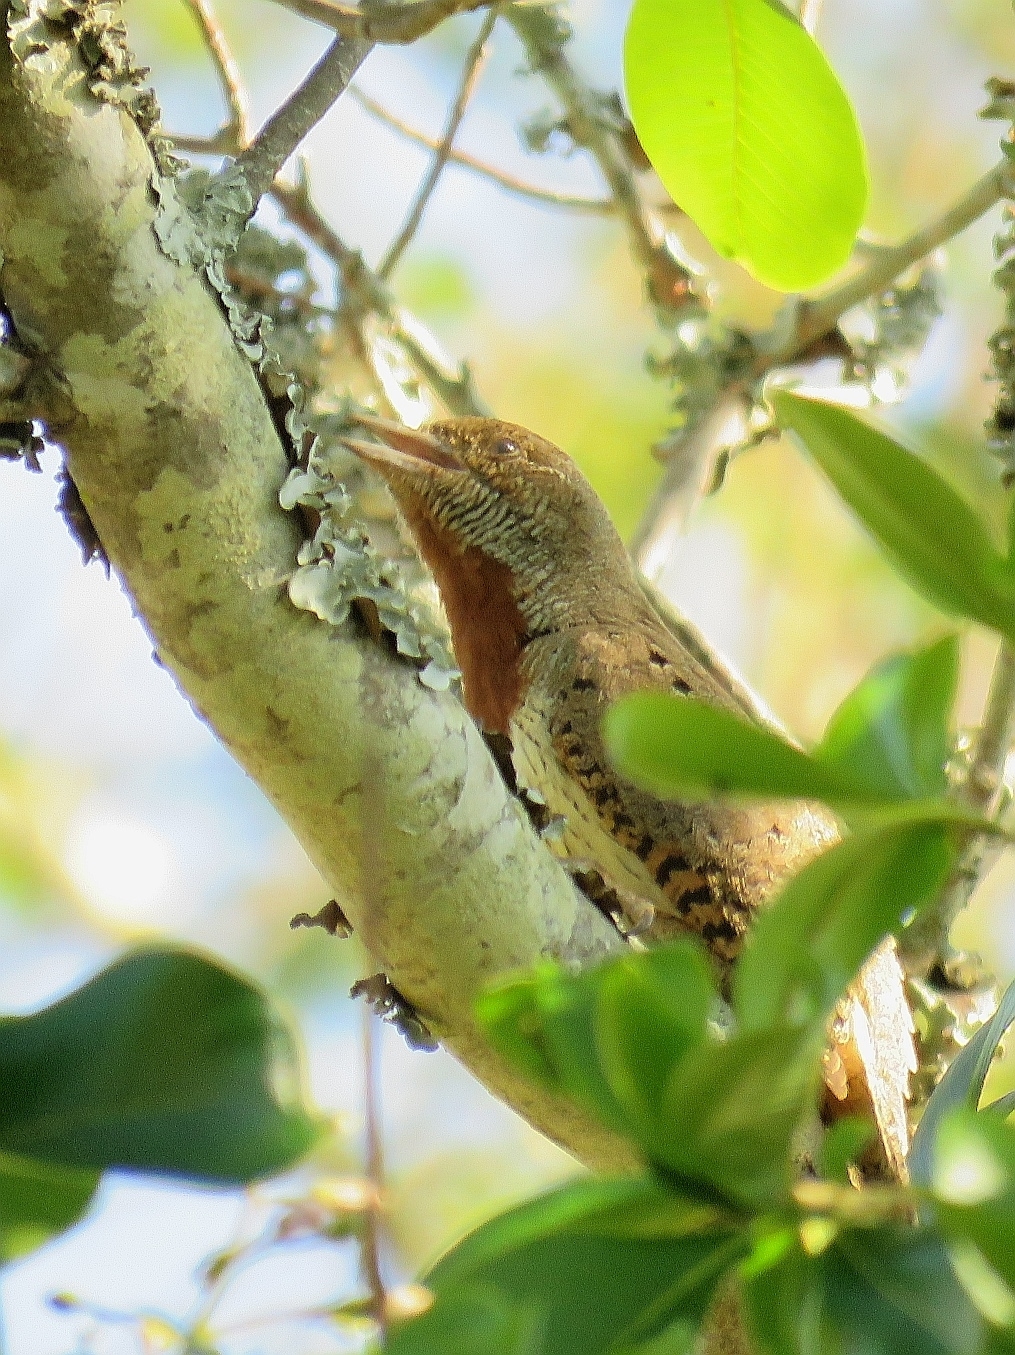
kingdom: Animalia
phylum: Chordata
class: Aves
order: Piciformes
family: Picidae
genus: Jynx
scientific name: Jynx ruficollis
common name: Red-throated wryneck
